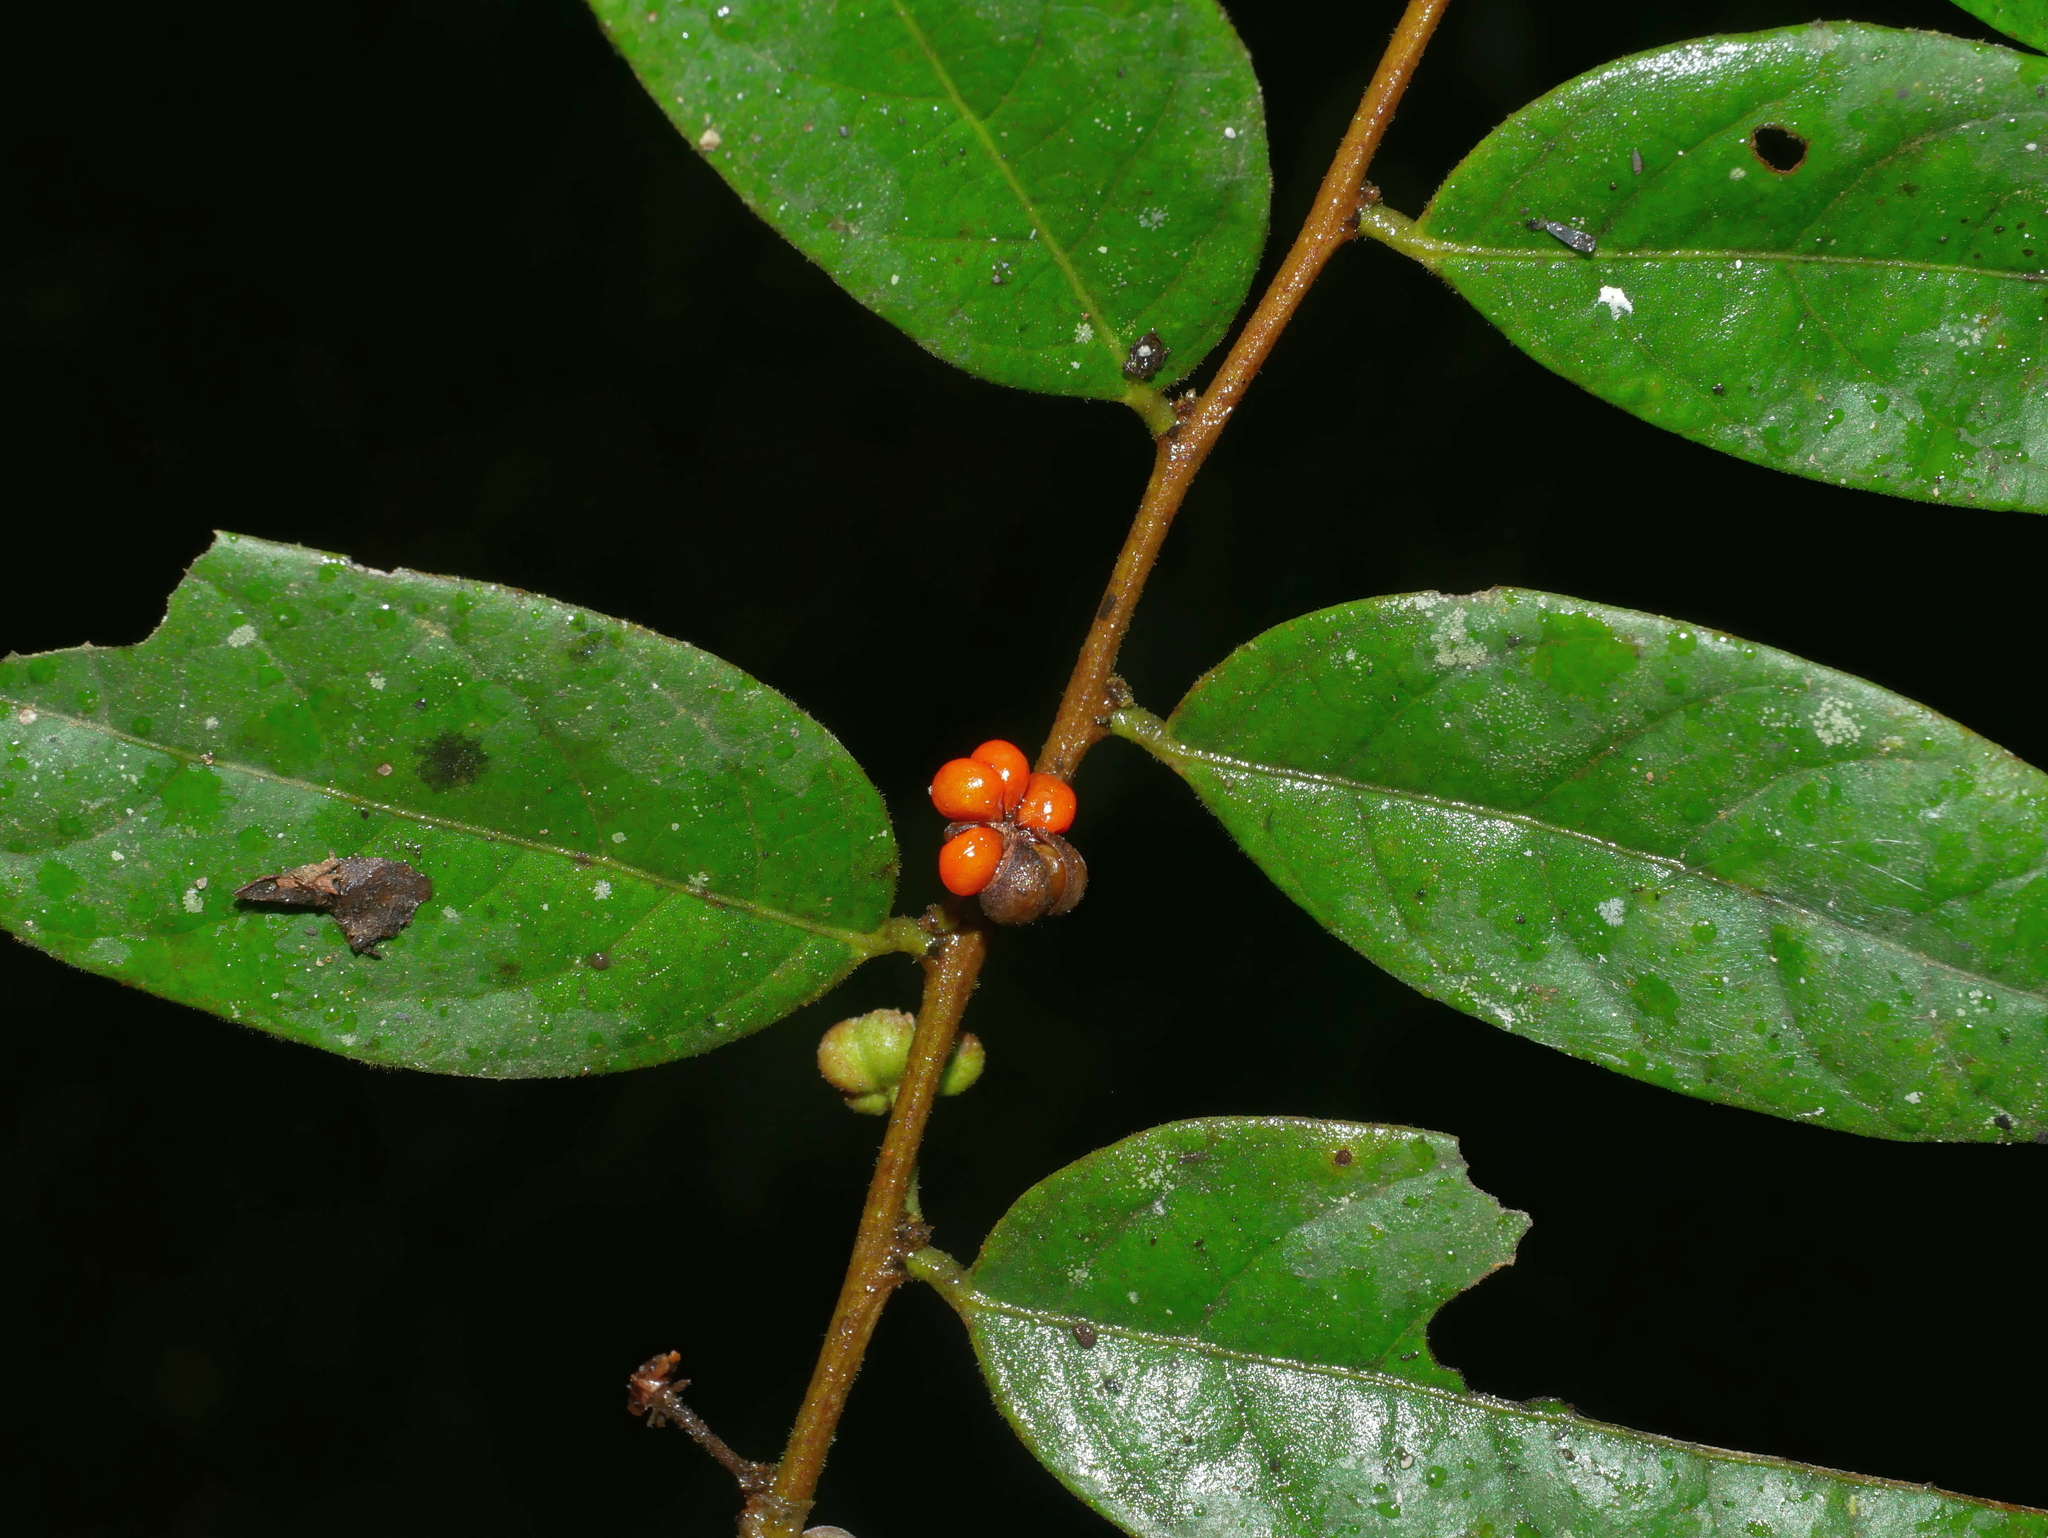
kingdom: Plantae
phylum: Tracheophyta
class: Magnoliopsida
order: Malpighiales
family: Phyllanthaceae
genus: Glochidion
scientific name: Glochidion acuminatum
